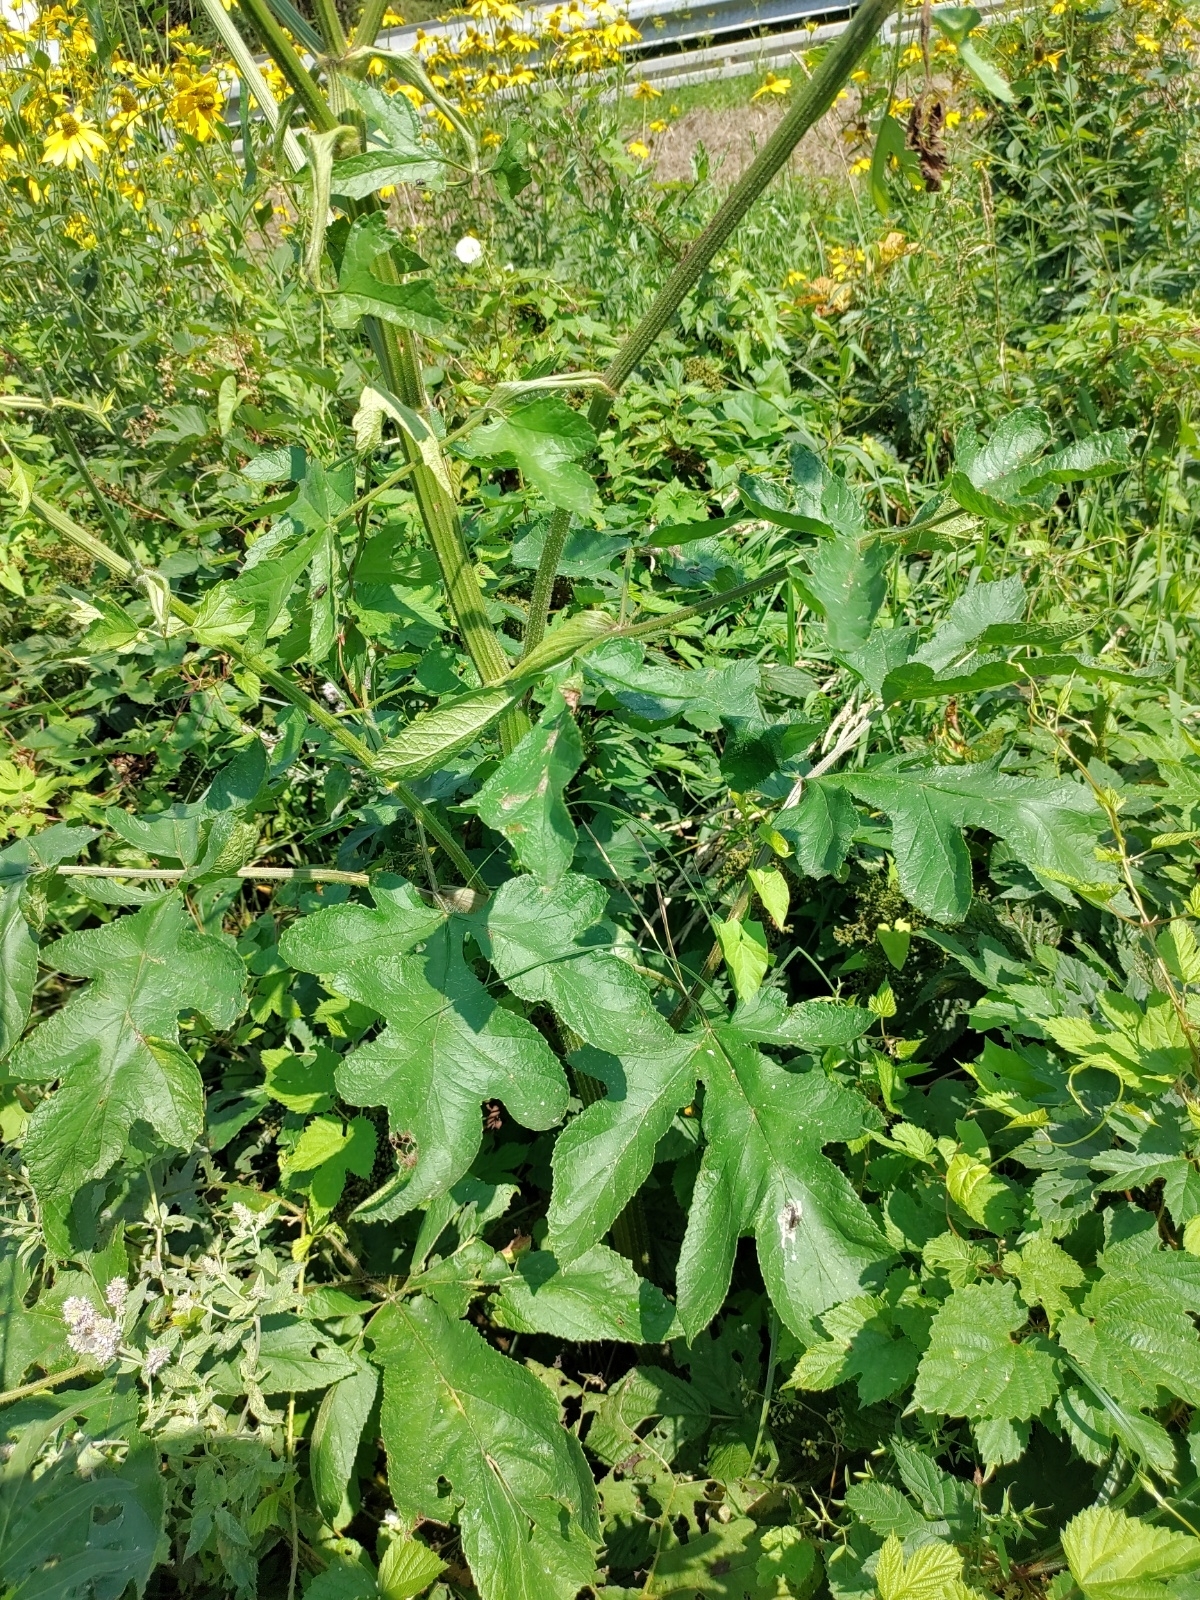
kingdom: Plantae
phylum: Tracheophyta
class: Magnoliopsida
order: Apiales
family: Apiaceae
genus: Heracleum
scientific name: Heracleum sphondylium
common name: Hogweed
